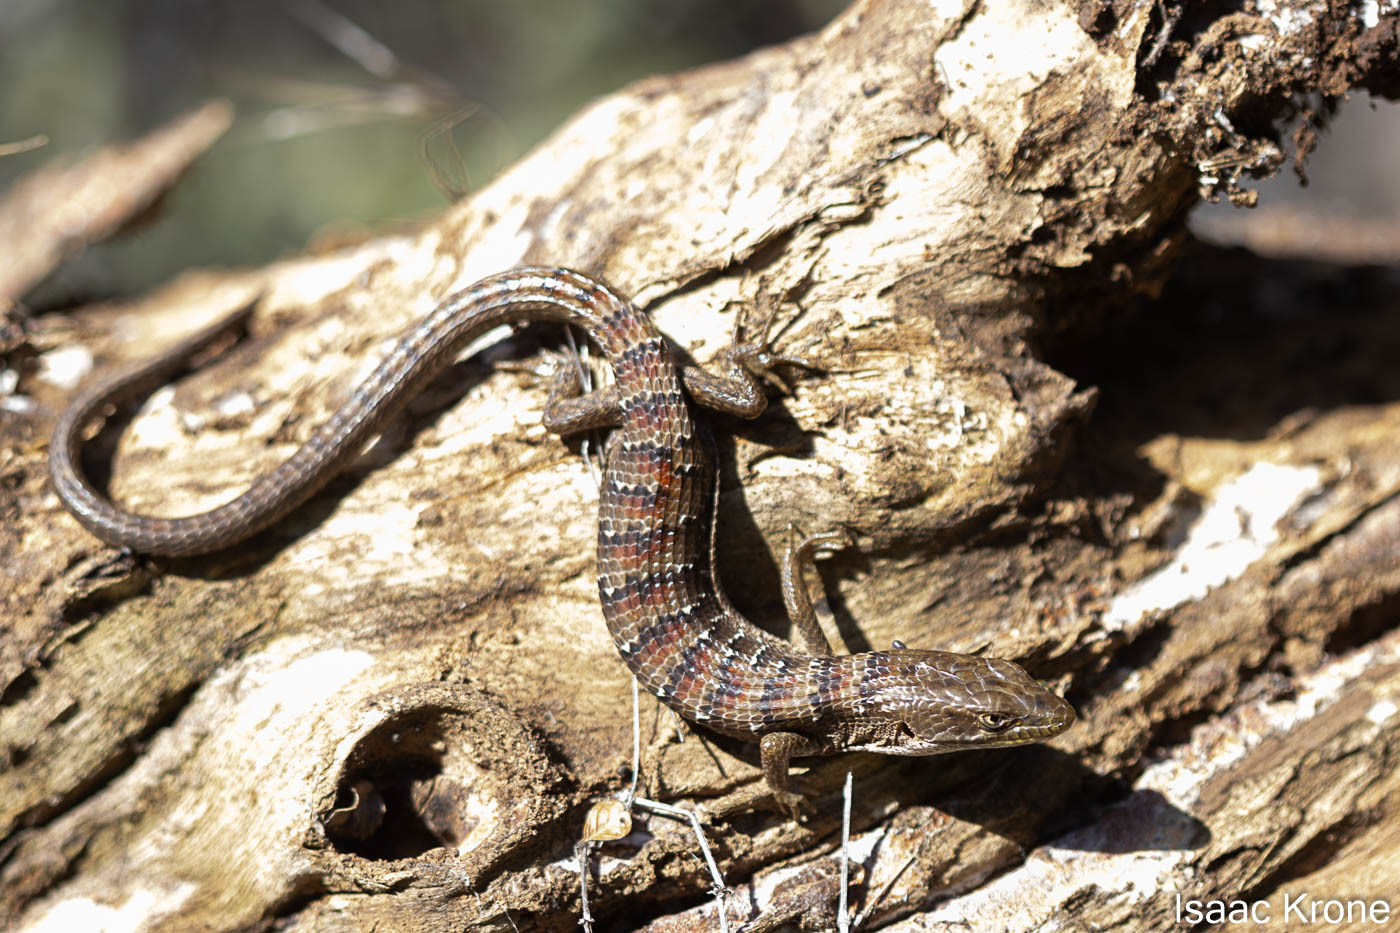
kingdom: Animalia
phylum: Chordata
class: Squamata
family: Anguidae
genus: Elgaria
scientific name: Elgaria multicarinata
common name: Southern alligator lizard
